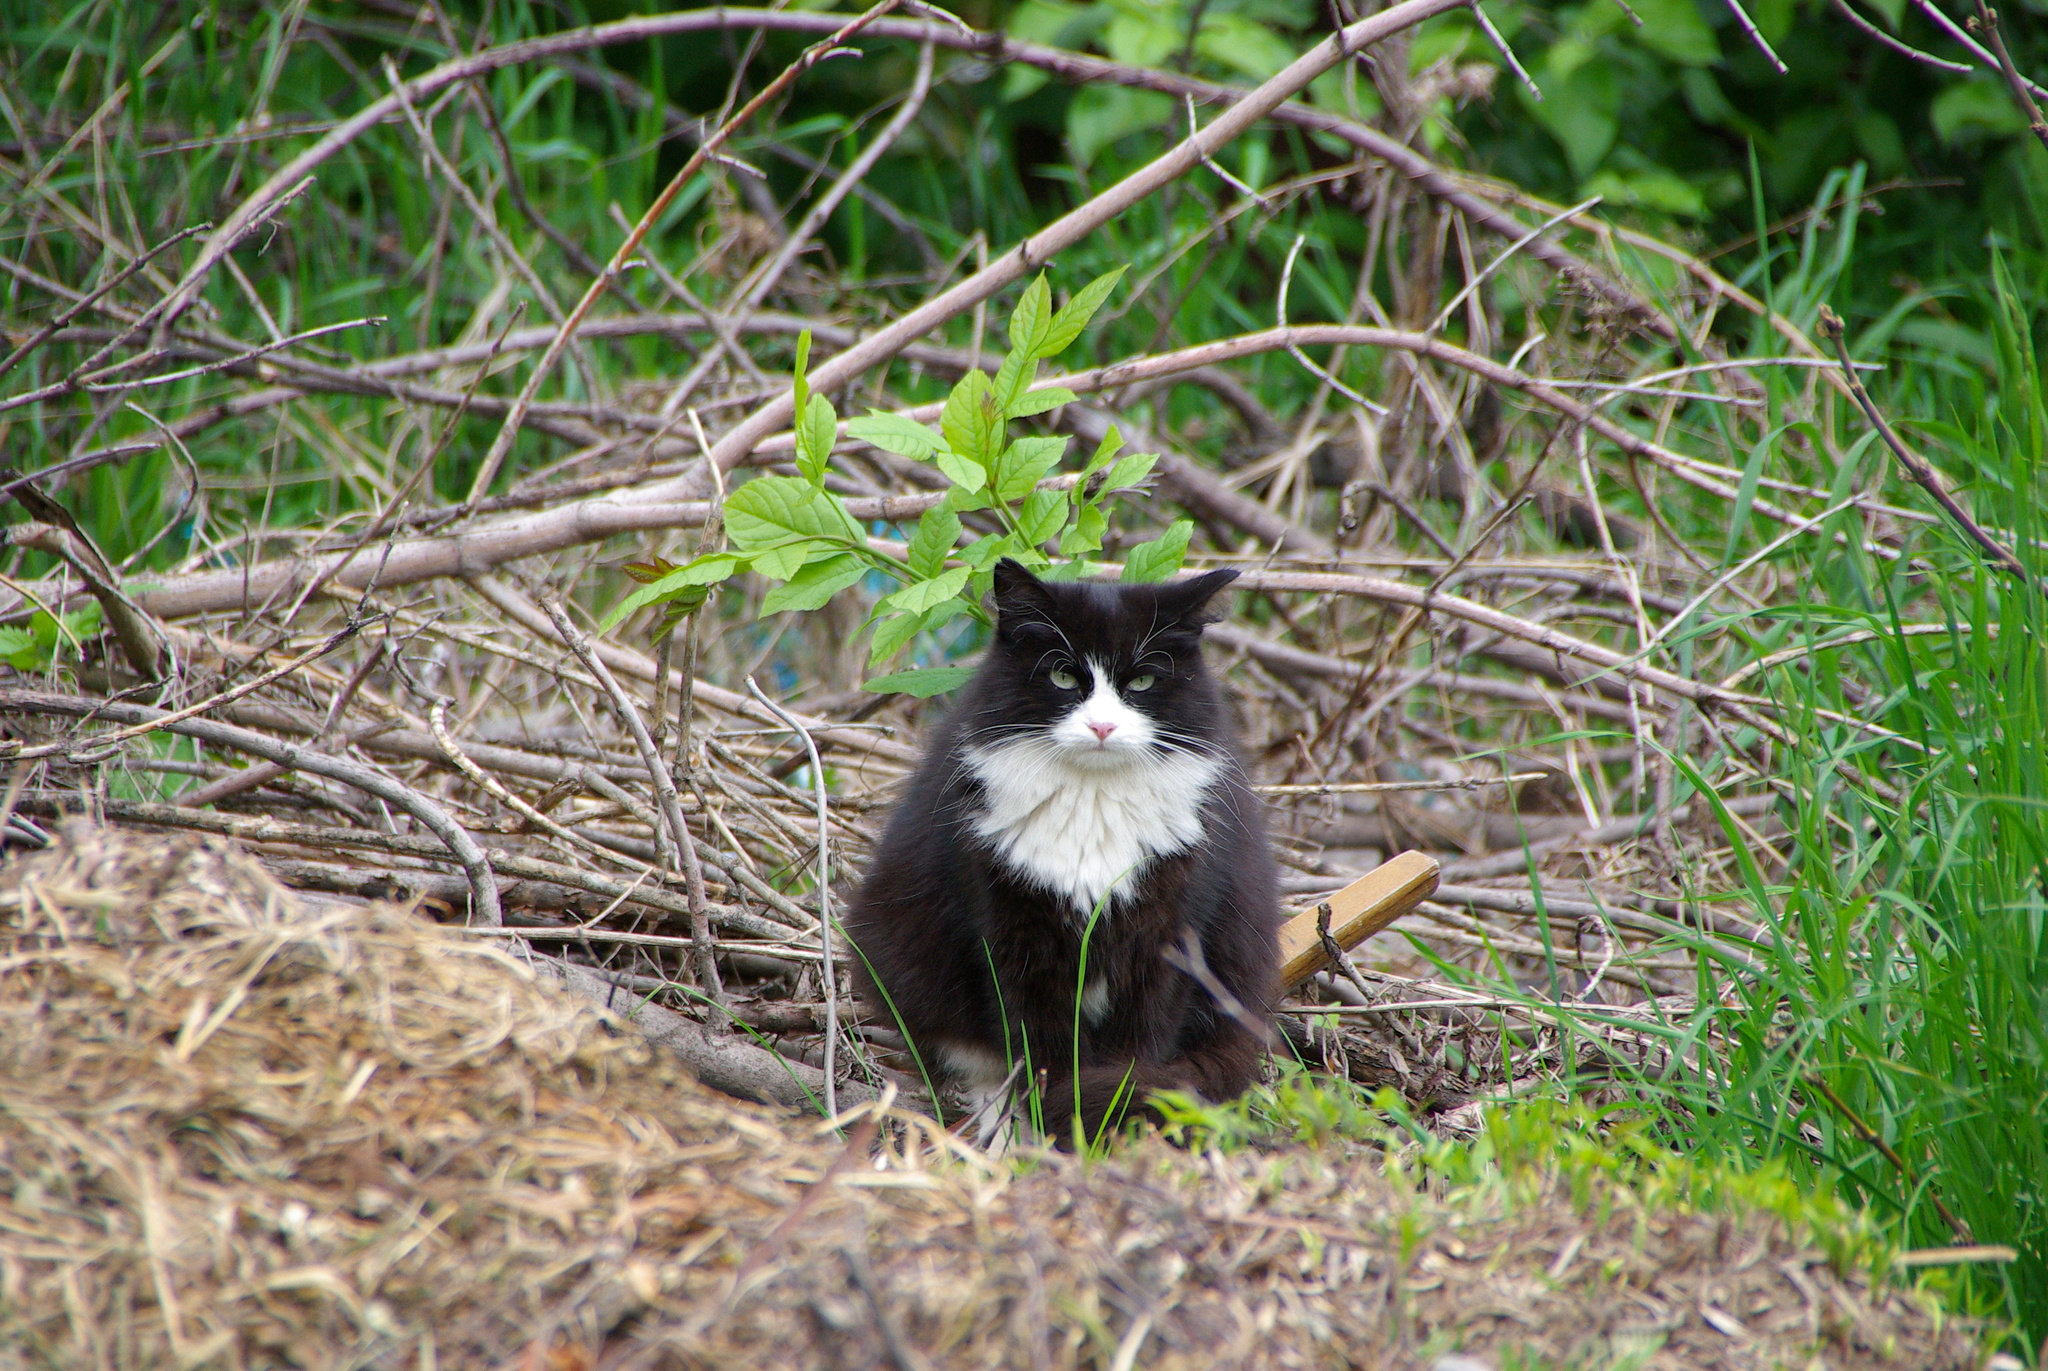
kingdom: Animalia
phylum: Chordata
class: Mammalia
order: Carnivora
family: Felidae
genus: Felis
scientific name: Felis catus
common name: Domestic cat
